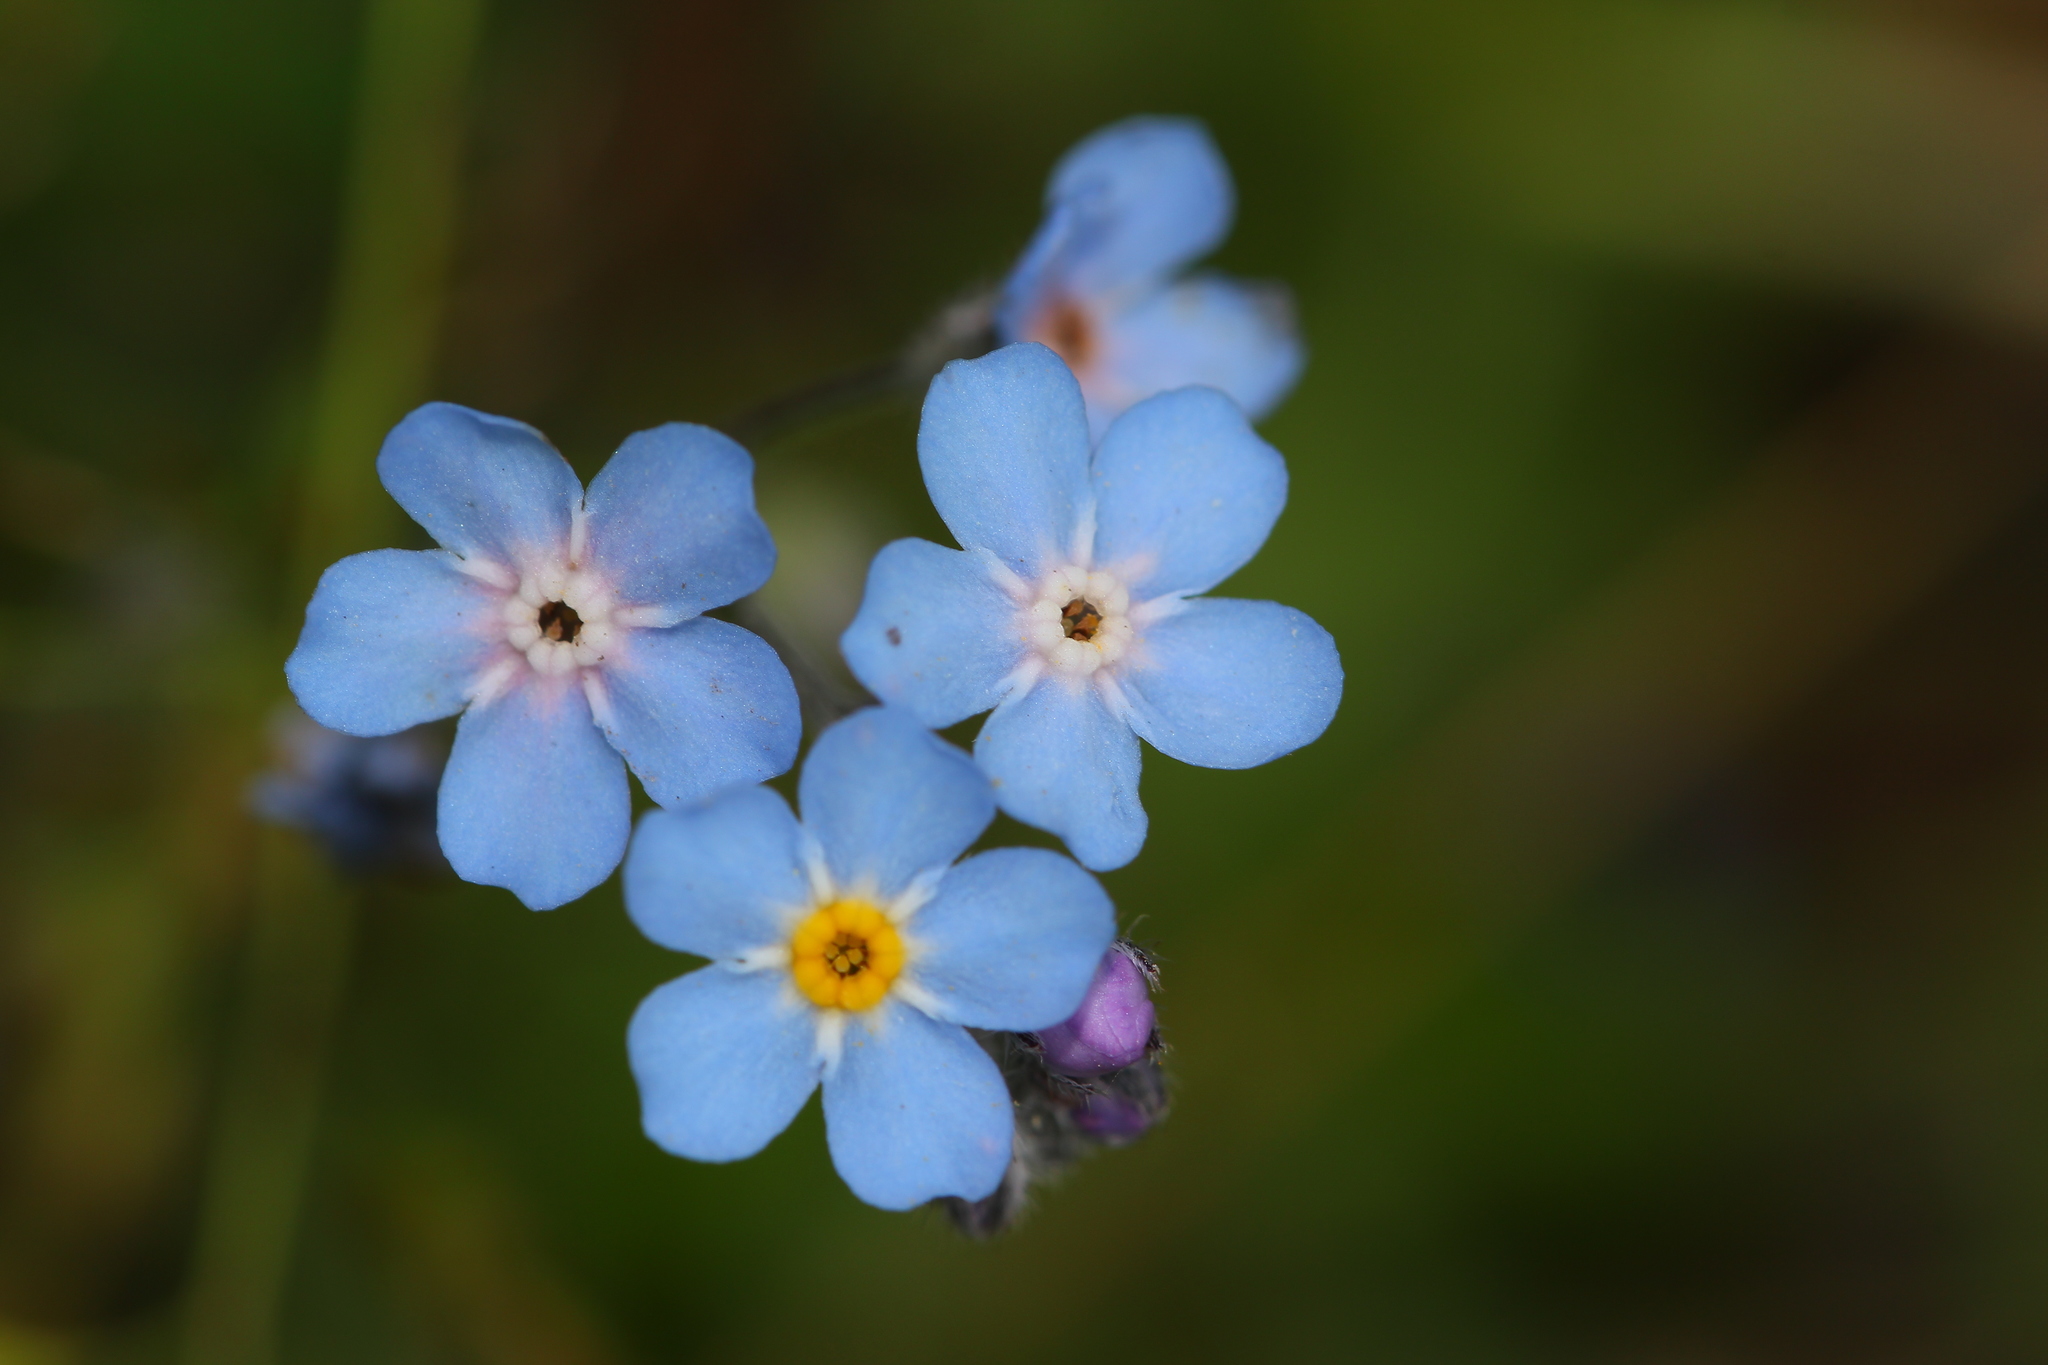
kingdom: Plantae
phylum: Tracheophyta
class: Magnoliopsida
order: Boraginales
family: Boraginaceae
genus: Myosotis
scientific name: Myosotis alpestris
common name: Alpine forget-me-not
